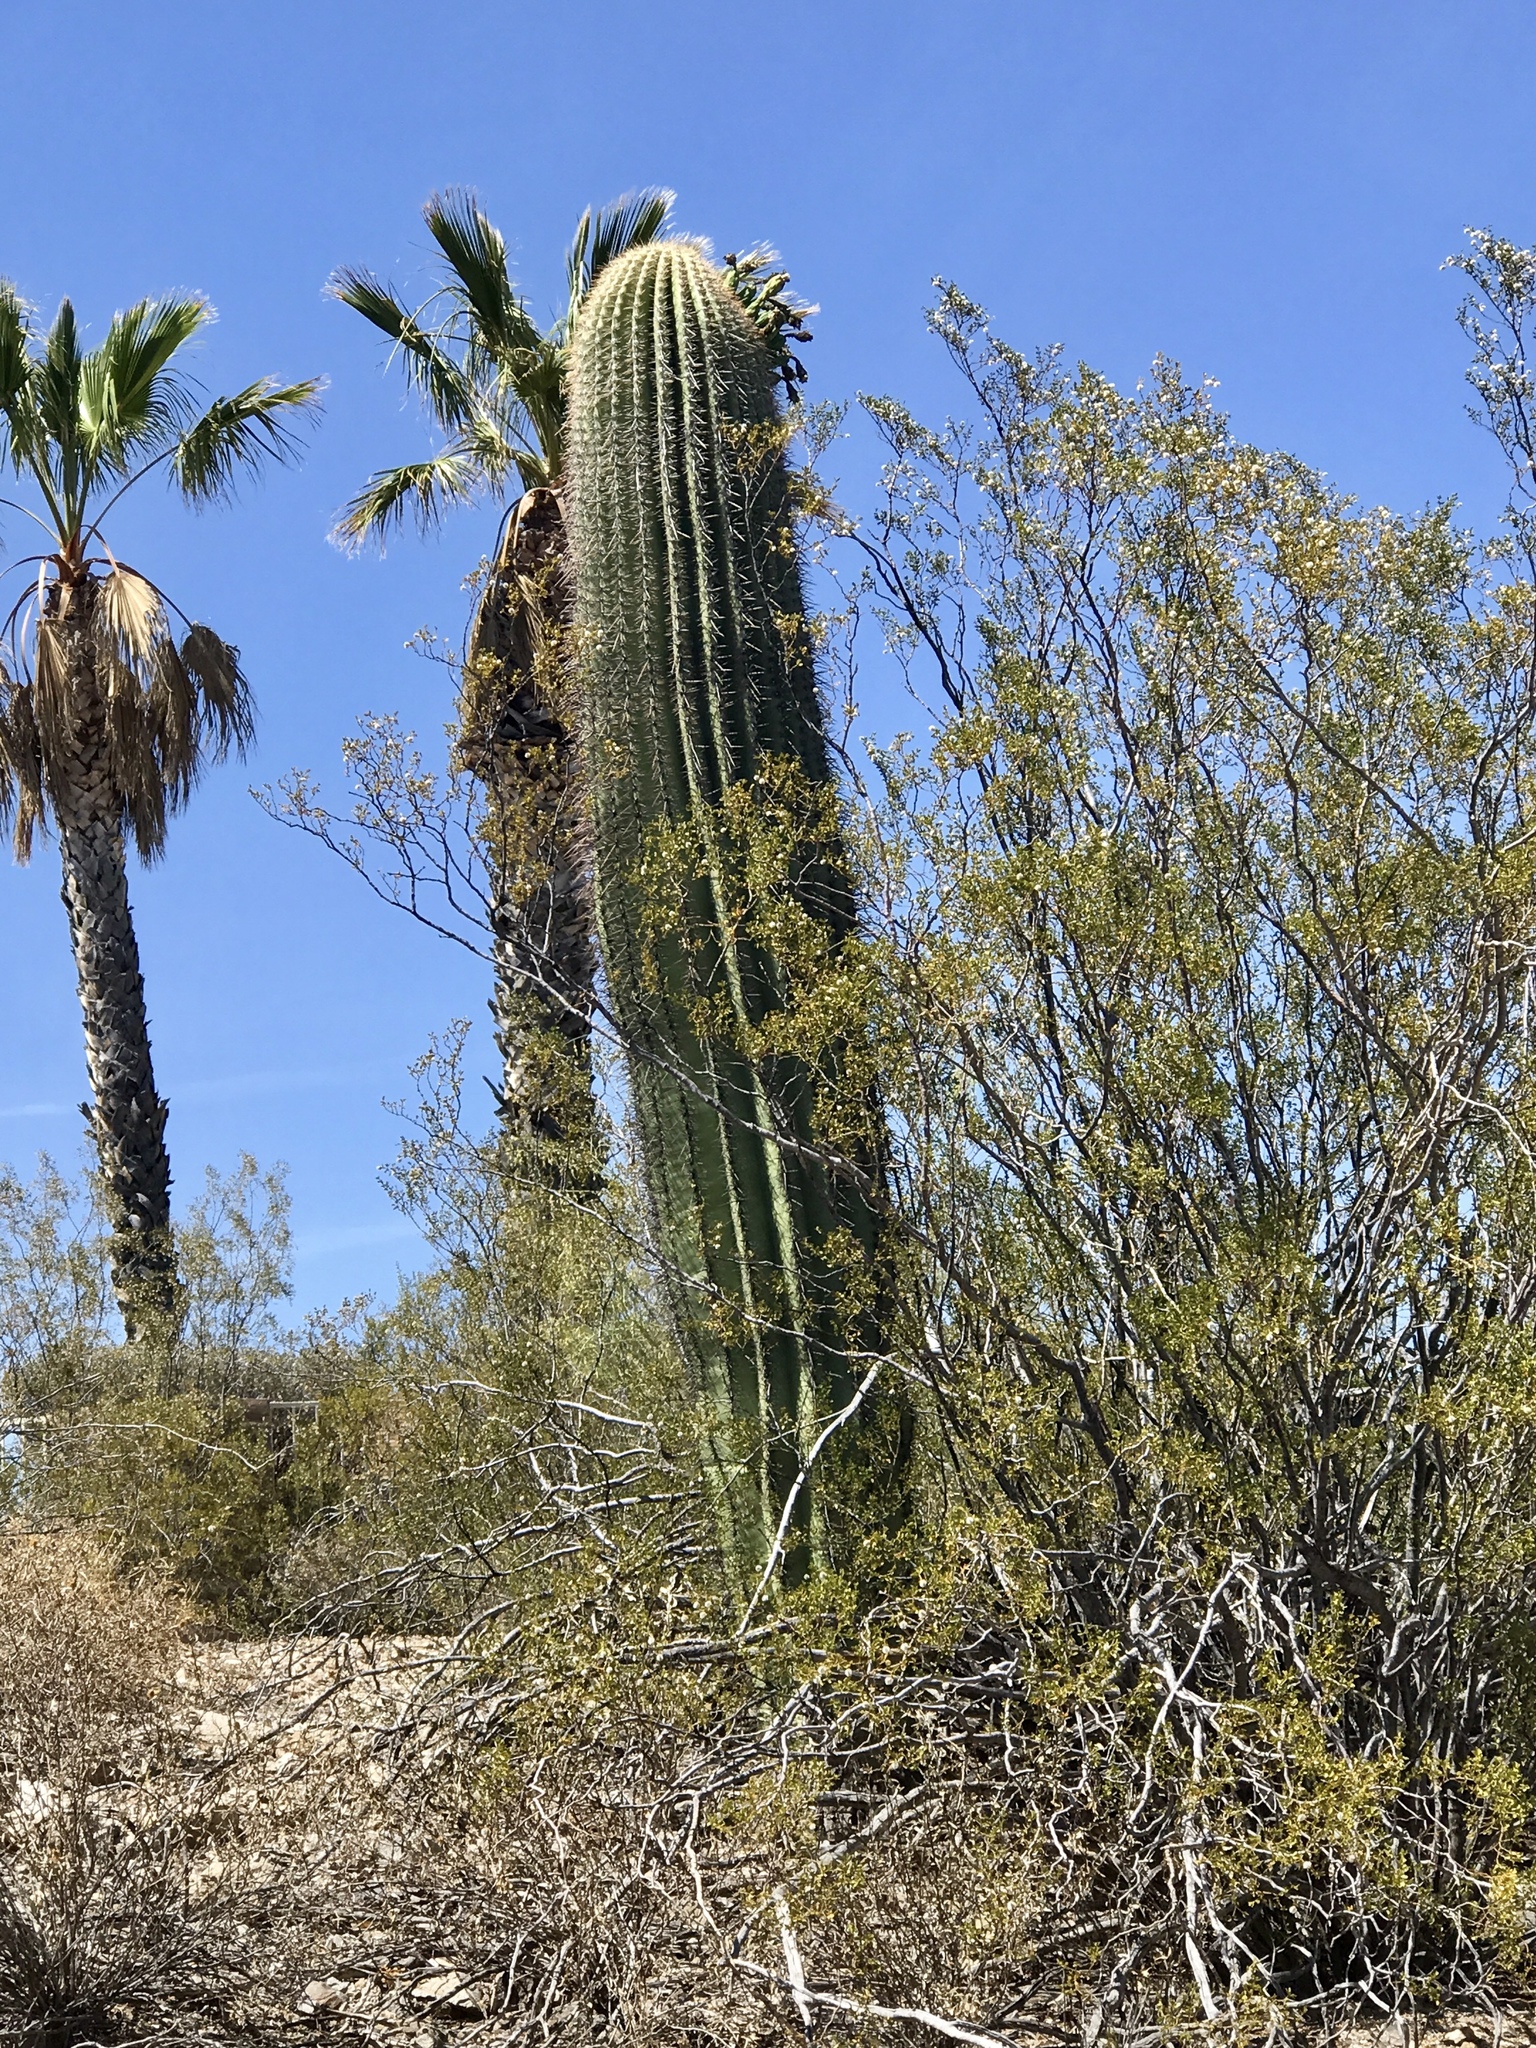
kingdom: Plantae
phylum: Tracheophyta
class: Magnoliopsida
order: Caryophyllales
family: Cactaceae
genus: Carnegiea
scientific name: Carnegiea gigantea
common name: Saguaro
